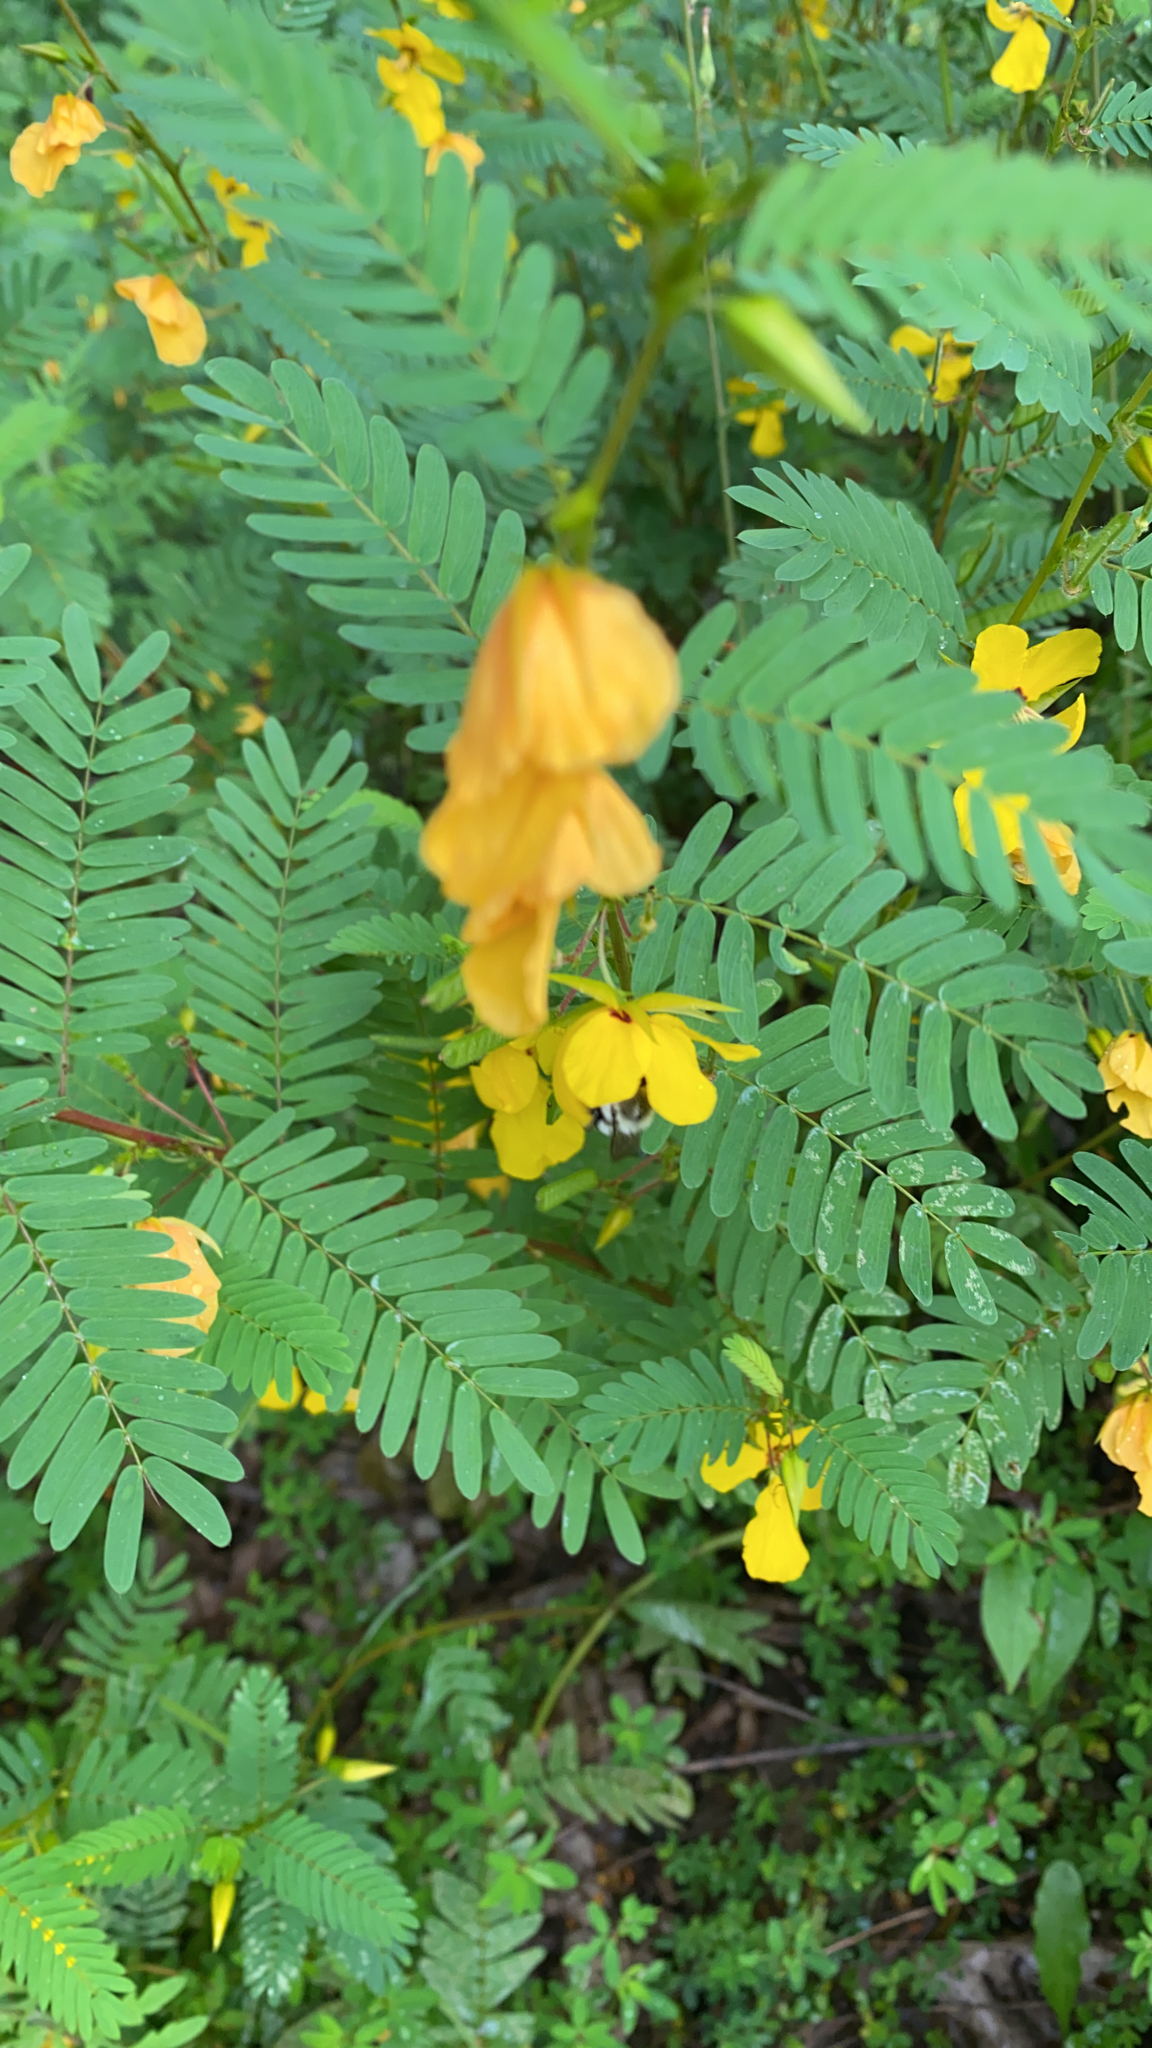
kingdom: Plantae
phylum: Tracheophyta
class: Magnoliopsida
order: Fabales
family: Fabaceae
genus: Chamaecrista
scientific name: Chamaecrista fasciculata
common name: Golden cassia
